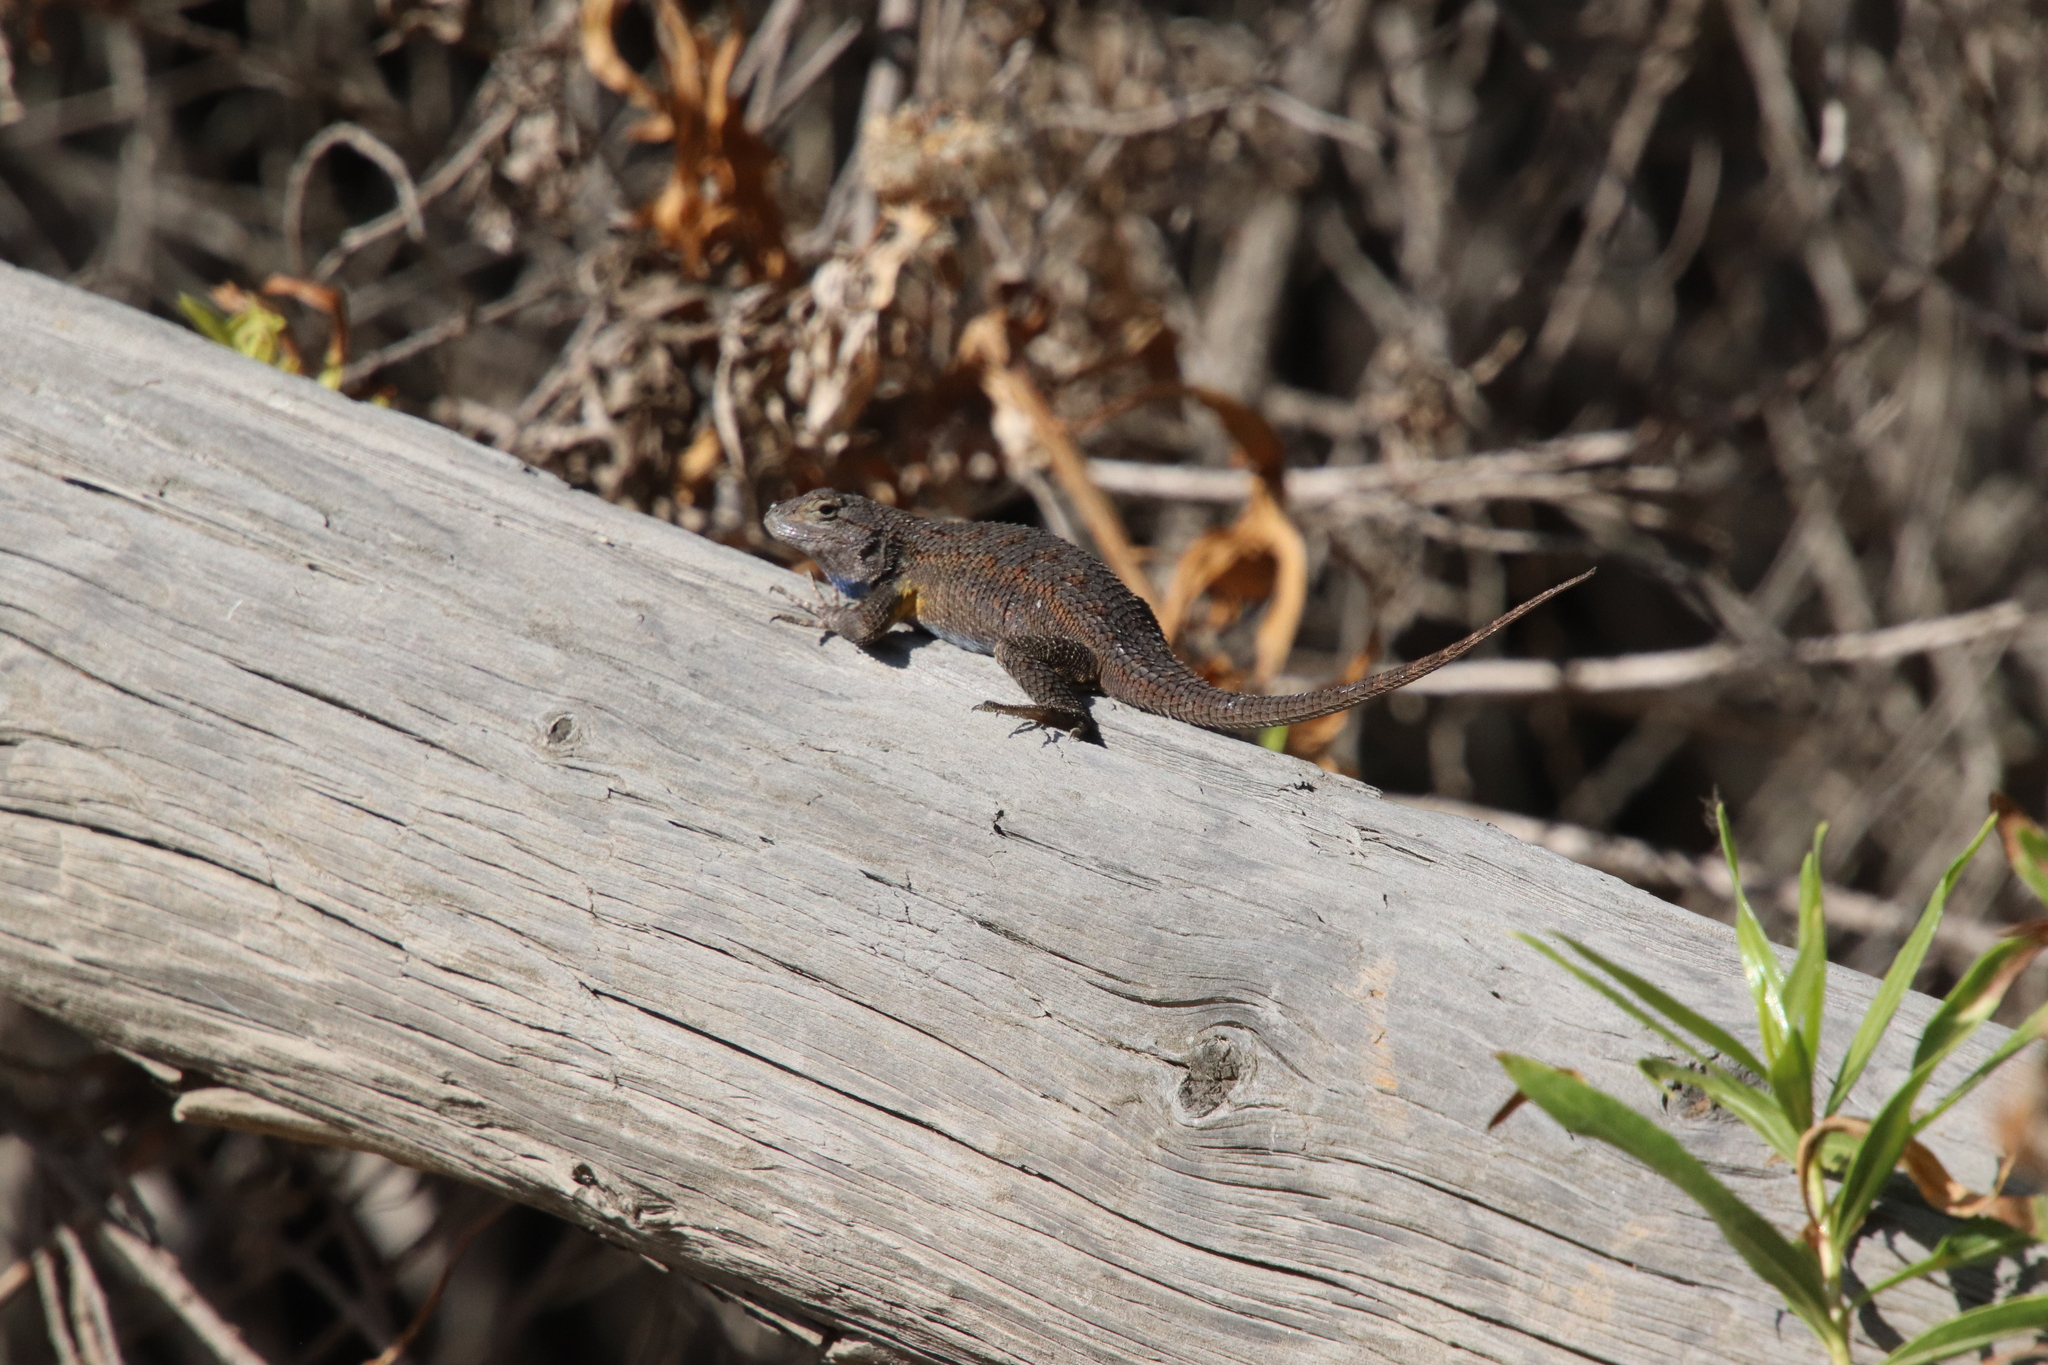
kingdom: Animalia
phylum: Chordata
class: Squamata
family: Phrynosomatidae
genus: Sceloporus
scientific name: Sceloporus occidentalis
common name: Western fence lizard
